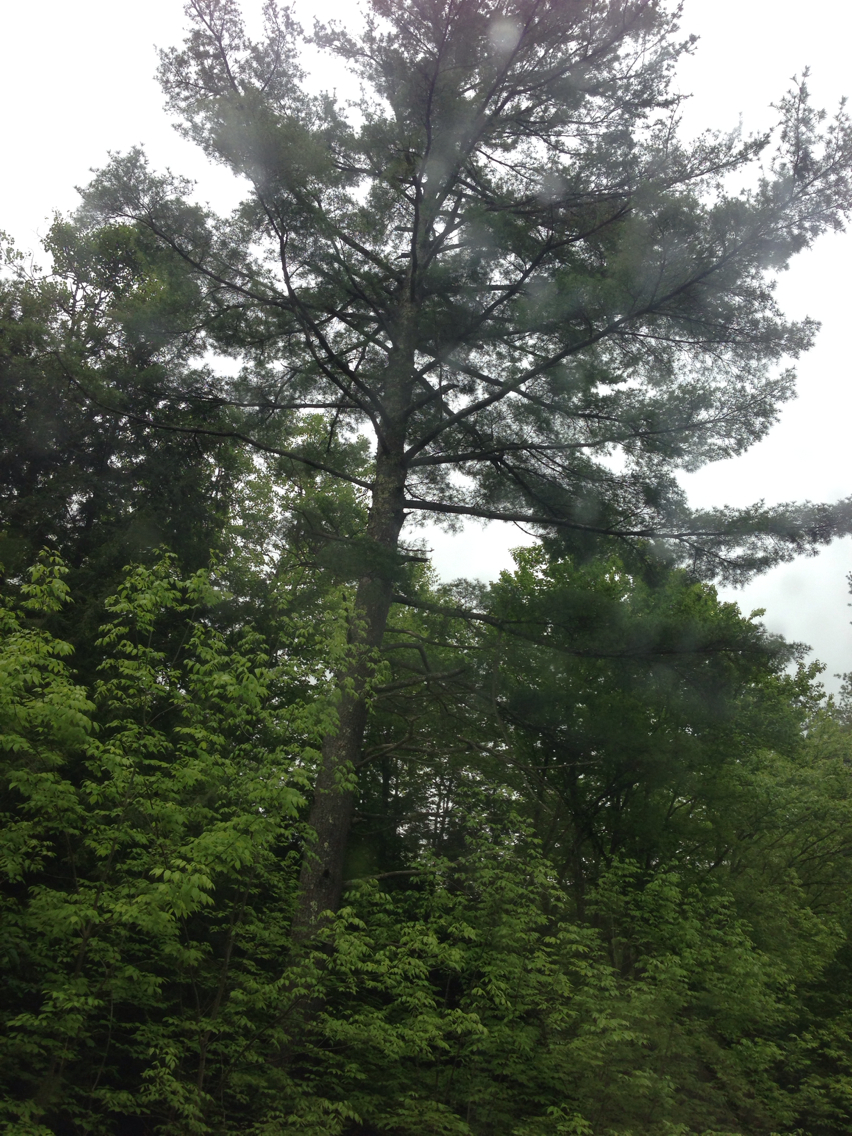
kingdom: Plantae
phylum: Tracheophyta
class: Pinopsida
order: Pinales
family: Pinaceae
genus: Pinus
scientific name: Pinus strobus
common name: Weymouth pine
